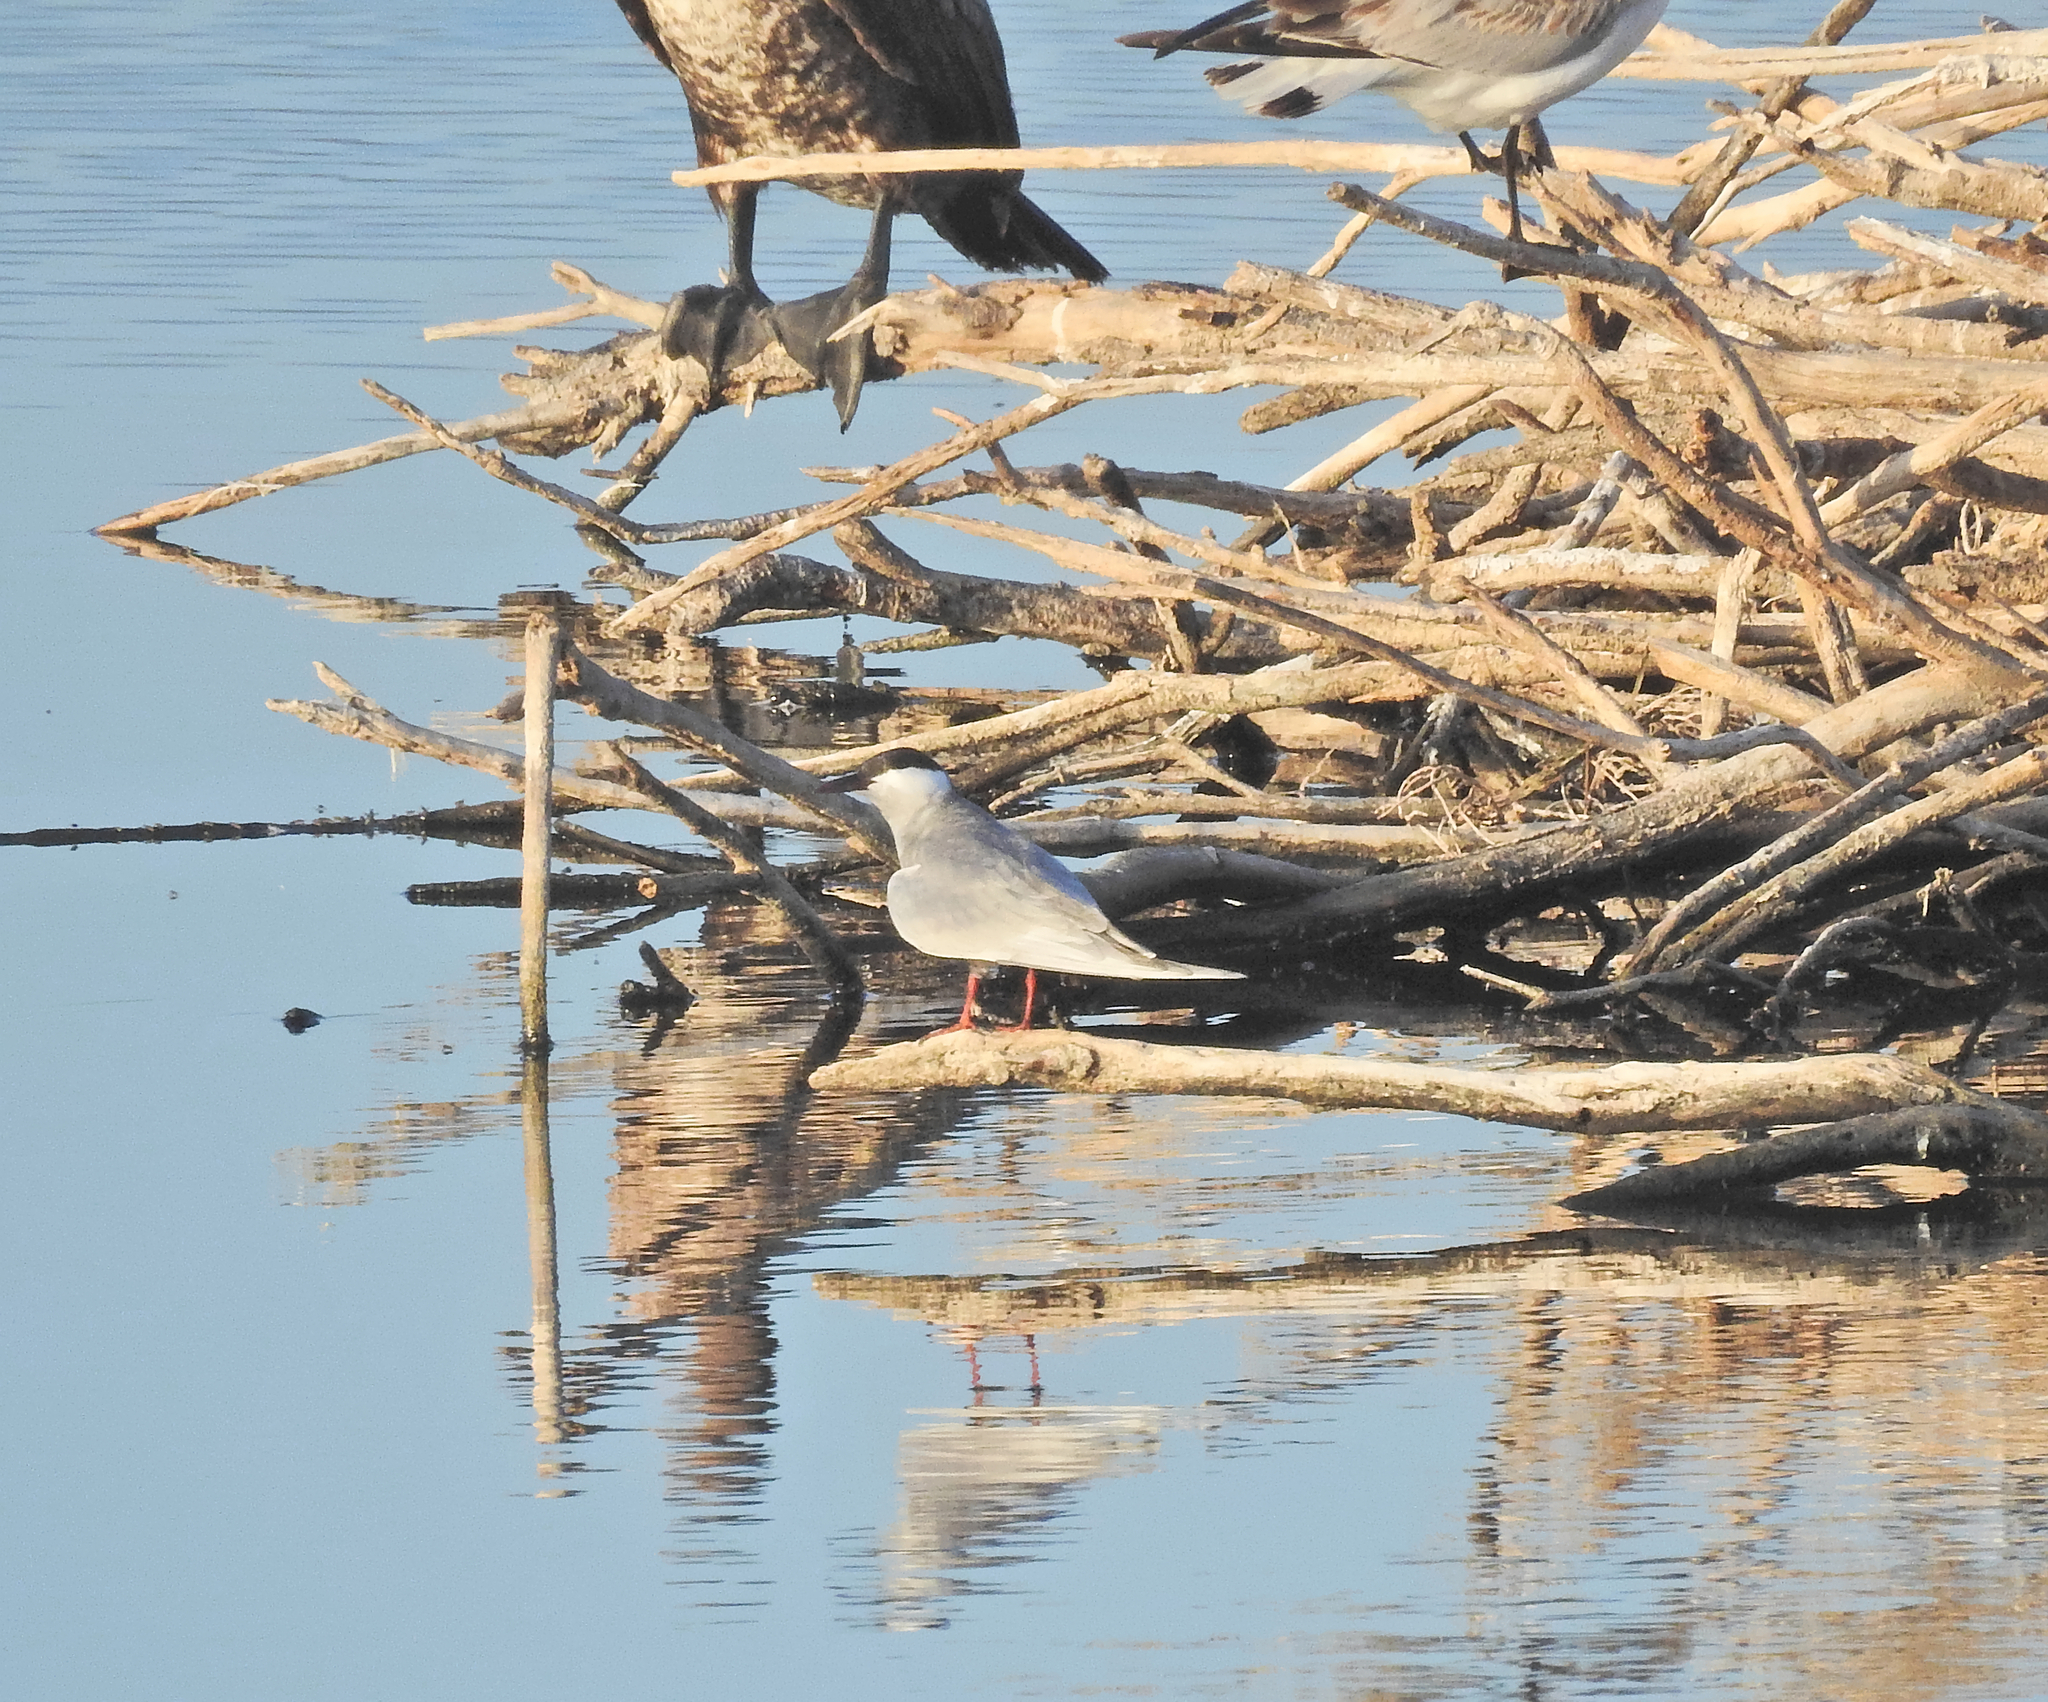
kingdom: Animalia
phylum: Chordata
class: Aves
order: Charadriiformes
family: Laridae
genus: Chlidonias
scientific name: Chlidonias hybrida
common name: Whiskered tern
